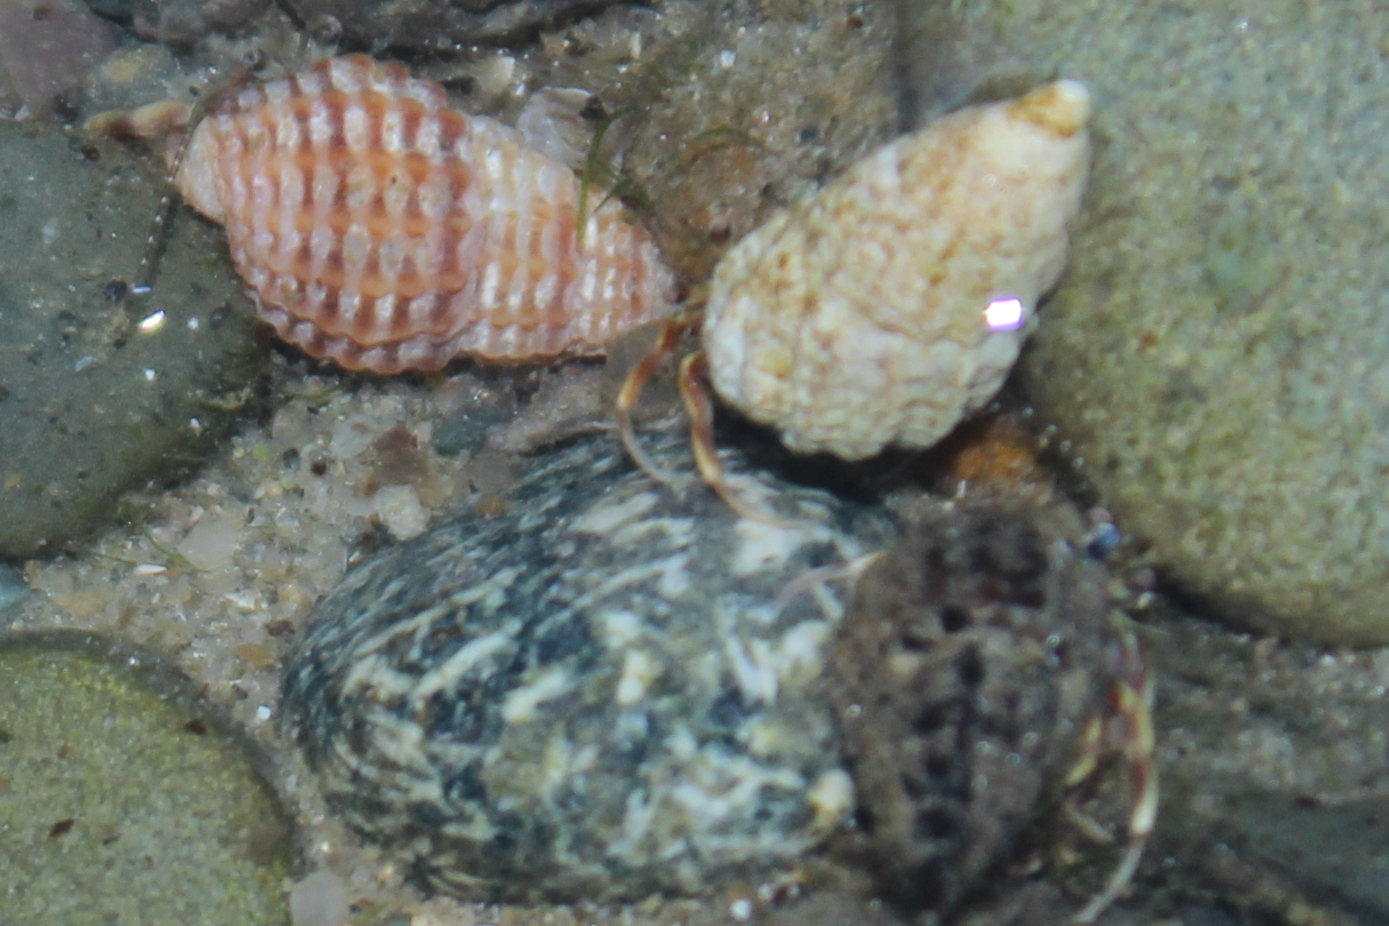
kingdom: Animalia
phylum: Arthropoda
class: Malacostraca
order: Decapoda
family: Paguridae
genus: Pagurus
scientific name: Pagurus longicarpus
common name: Long-armed hermit crab
